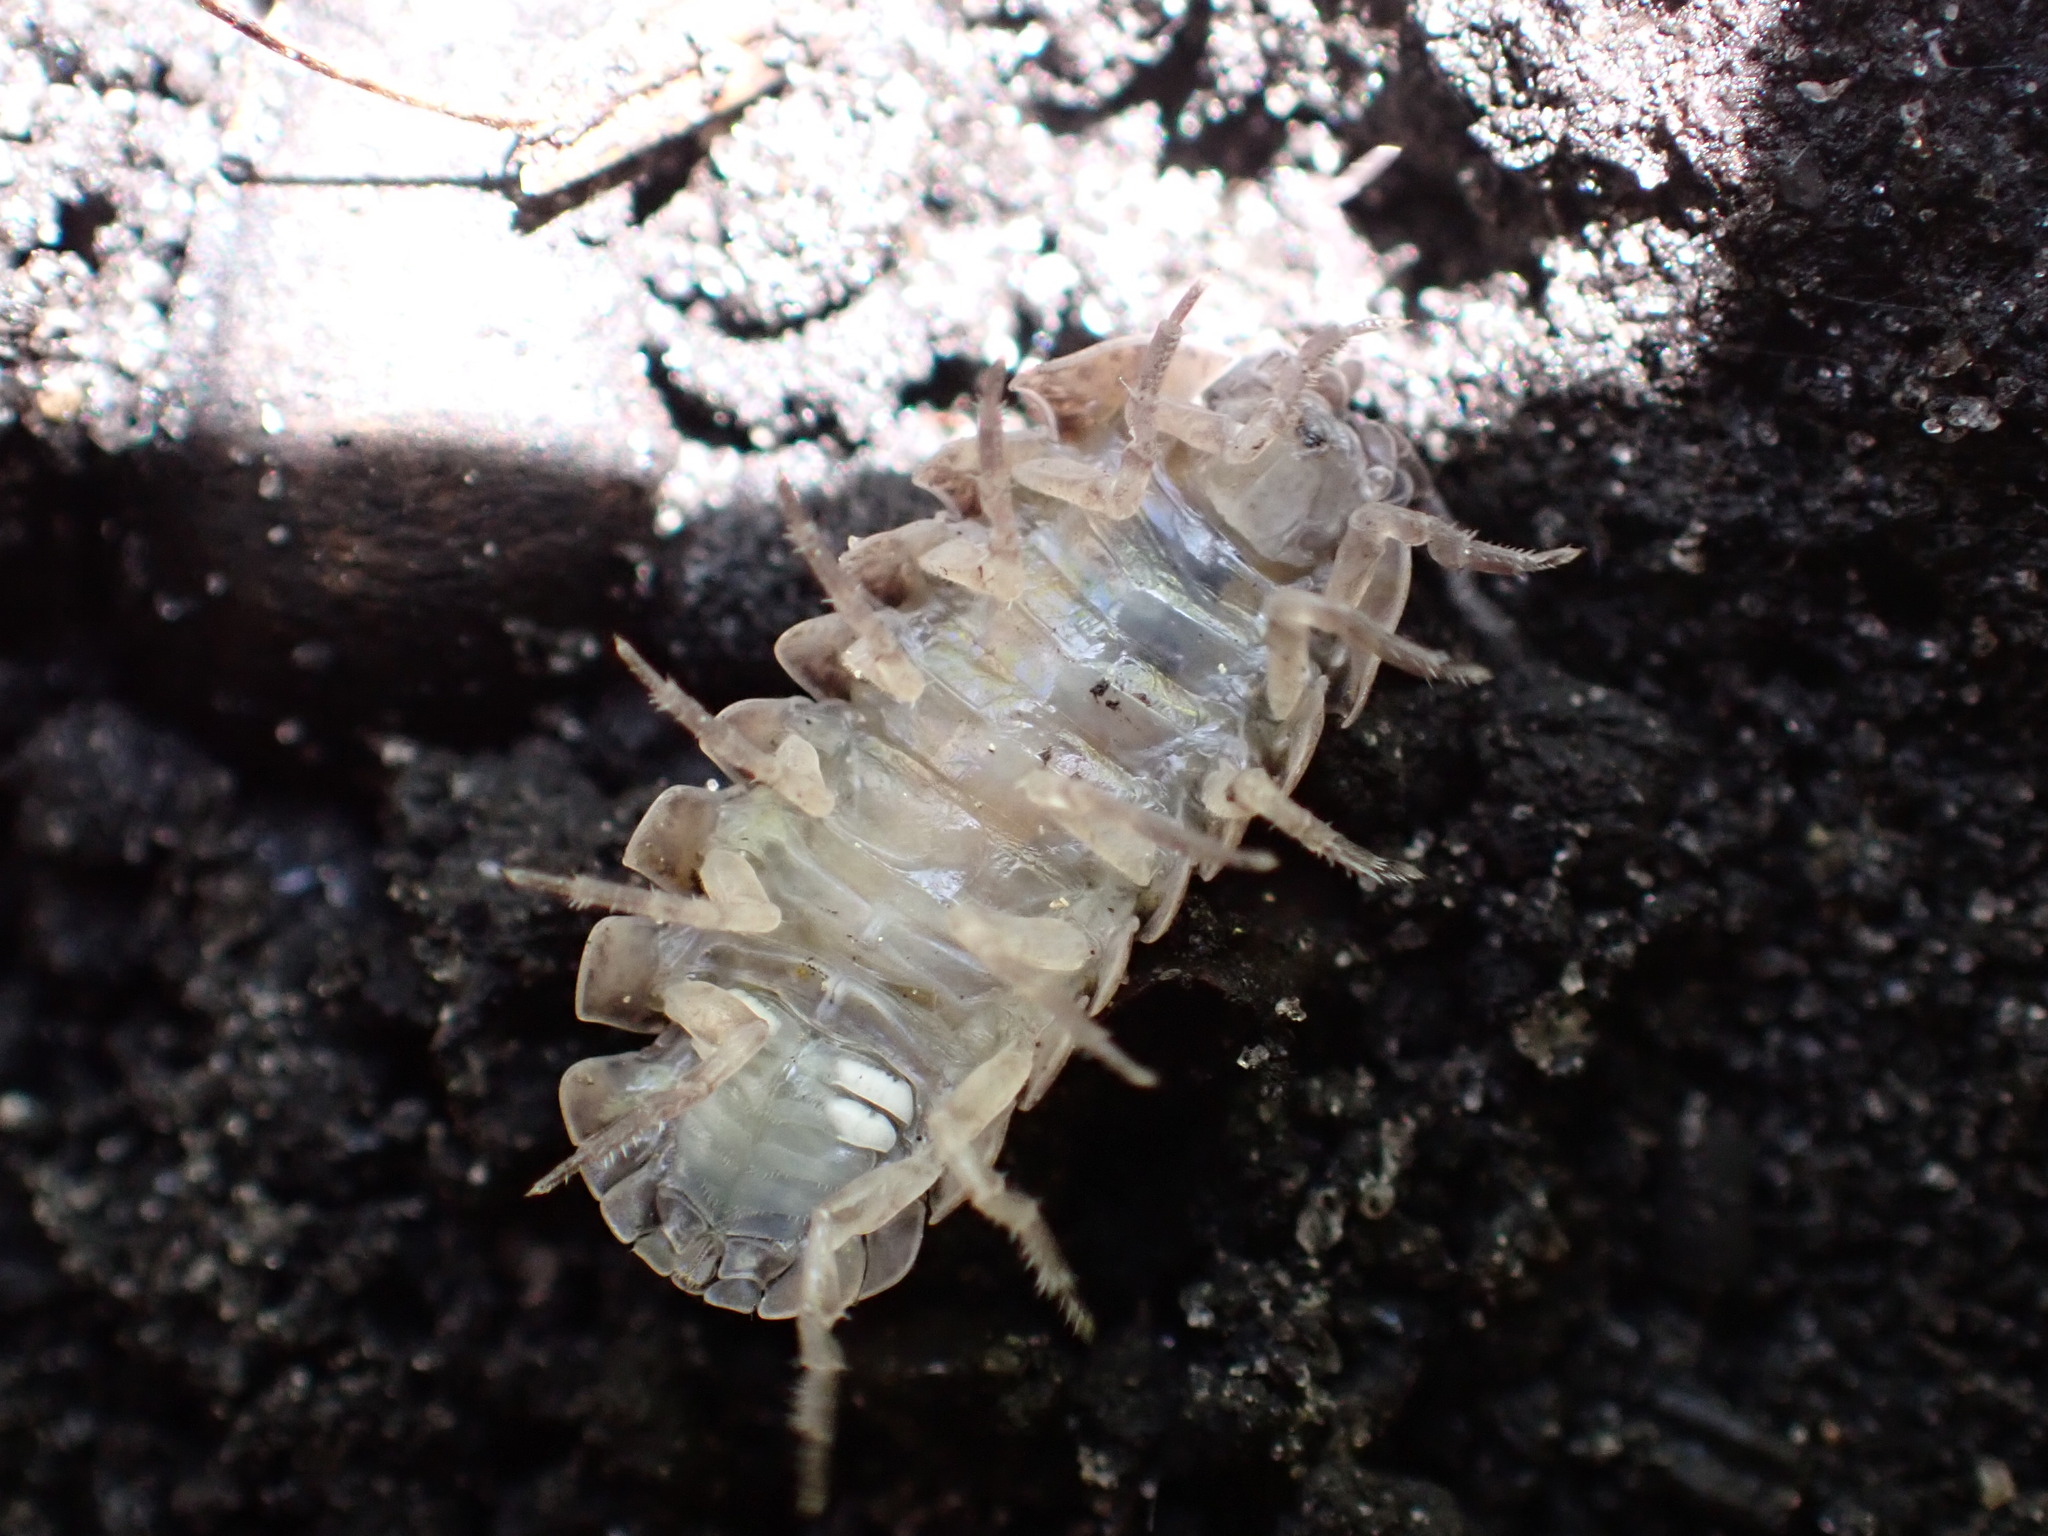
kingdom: Animalia
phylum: Arthropoda
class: Malacostraca
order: Isopoda
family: Armadillidiidae
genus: Armadillidium
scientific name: Armadillidium vulgare
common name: Common pill woodlouse
